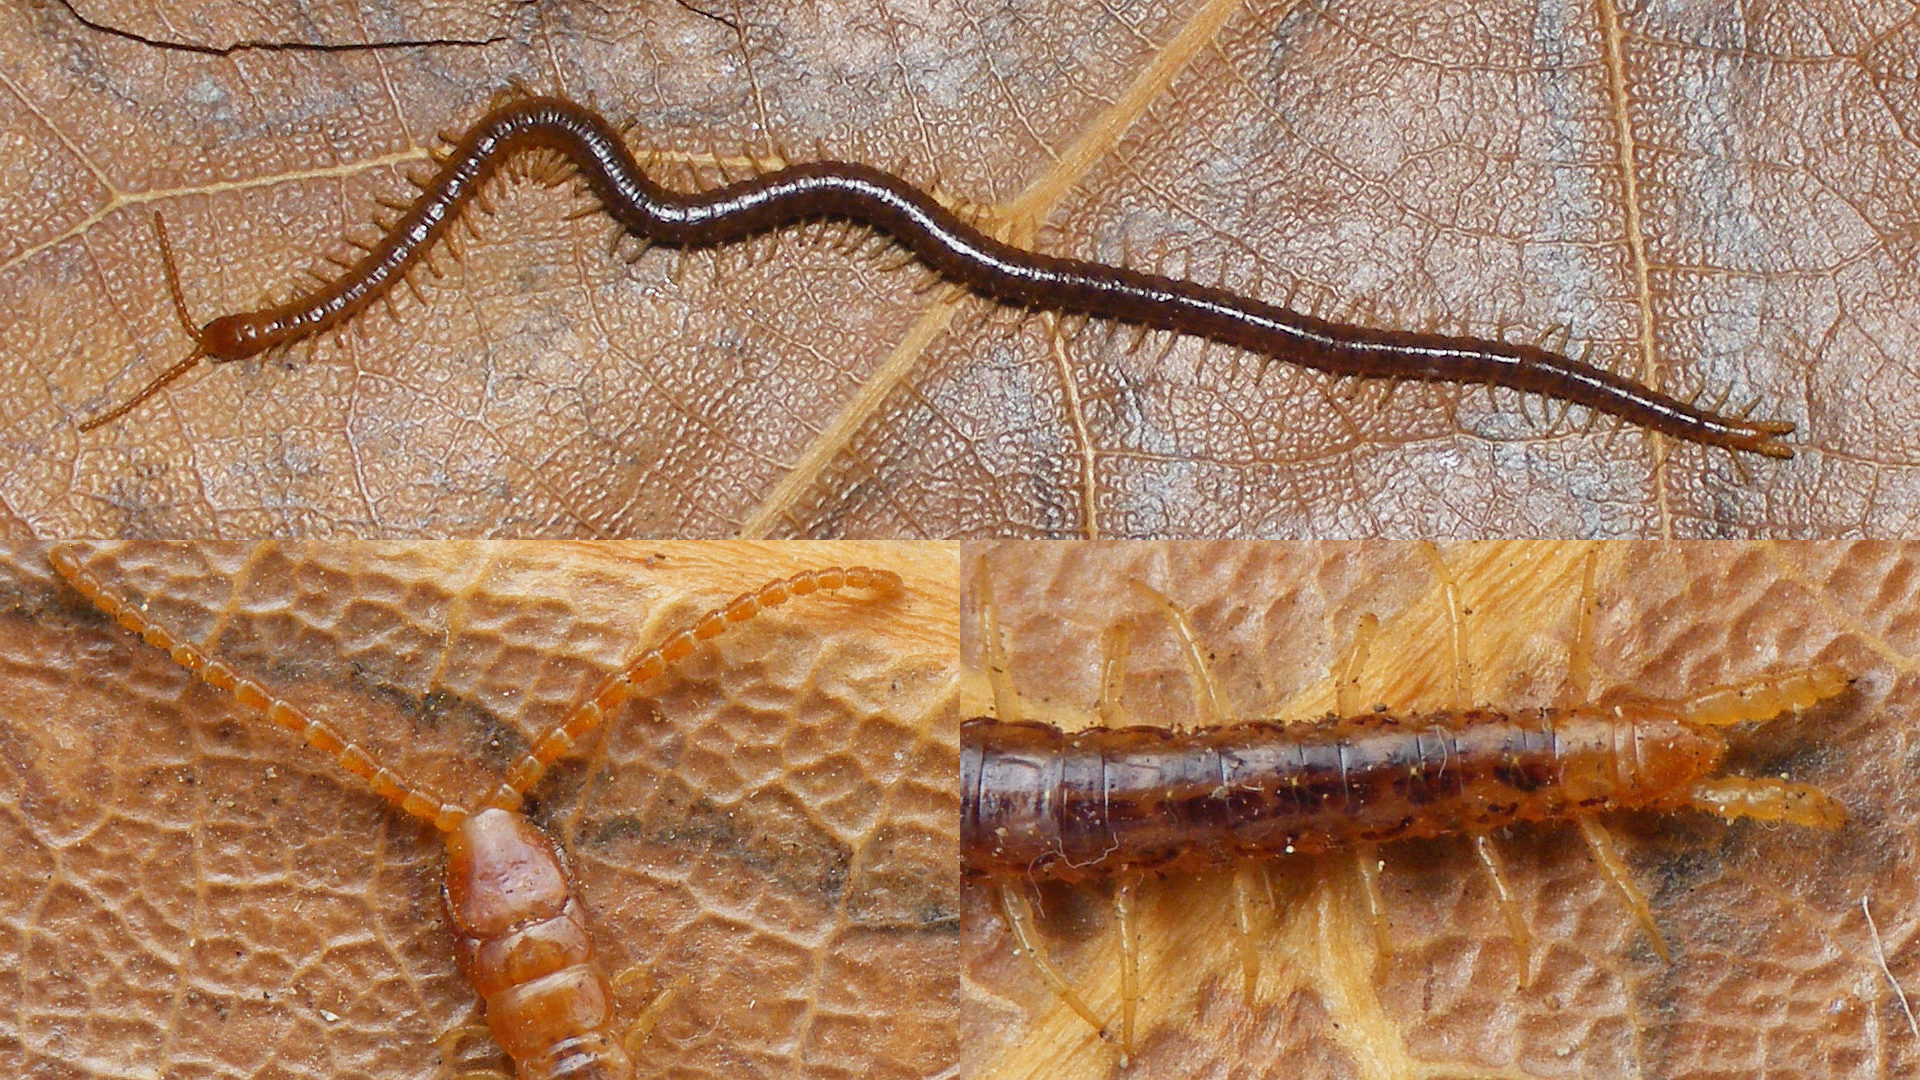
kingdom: Animalia
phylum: Arthropoda
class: Chilopoda
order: Geophilomorpha
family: Dignathodontidae
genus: Henia
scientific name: Henia bicarinata
